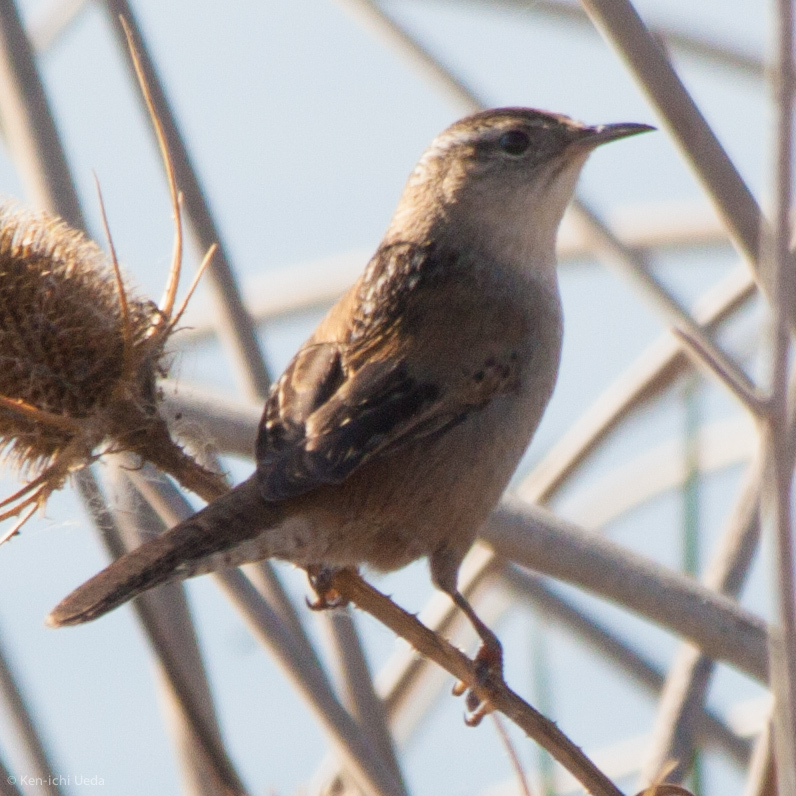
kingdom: Animalia
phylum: Chordata
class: Aves
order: Passeriformes
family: Troglodytidae
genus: Cistothorus
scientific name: Cistothorus palustris
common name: Marsh wren
